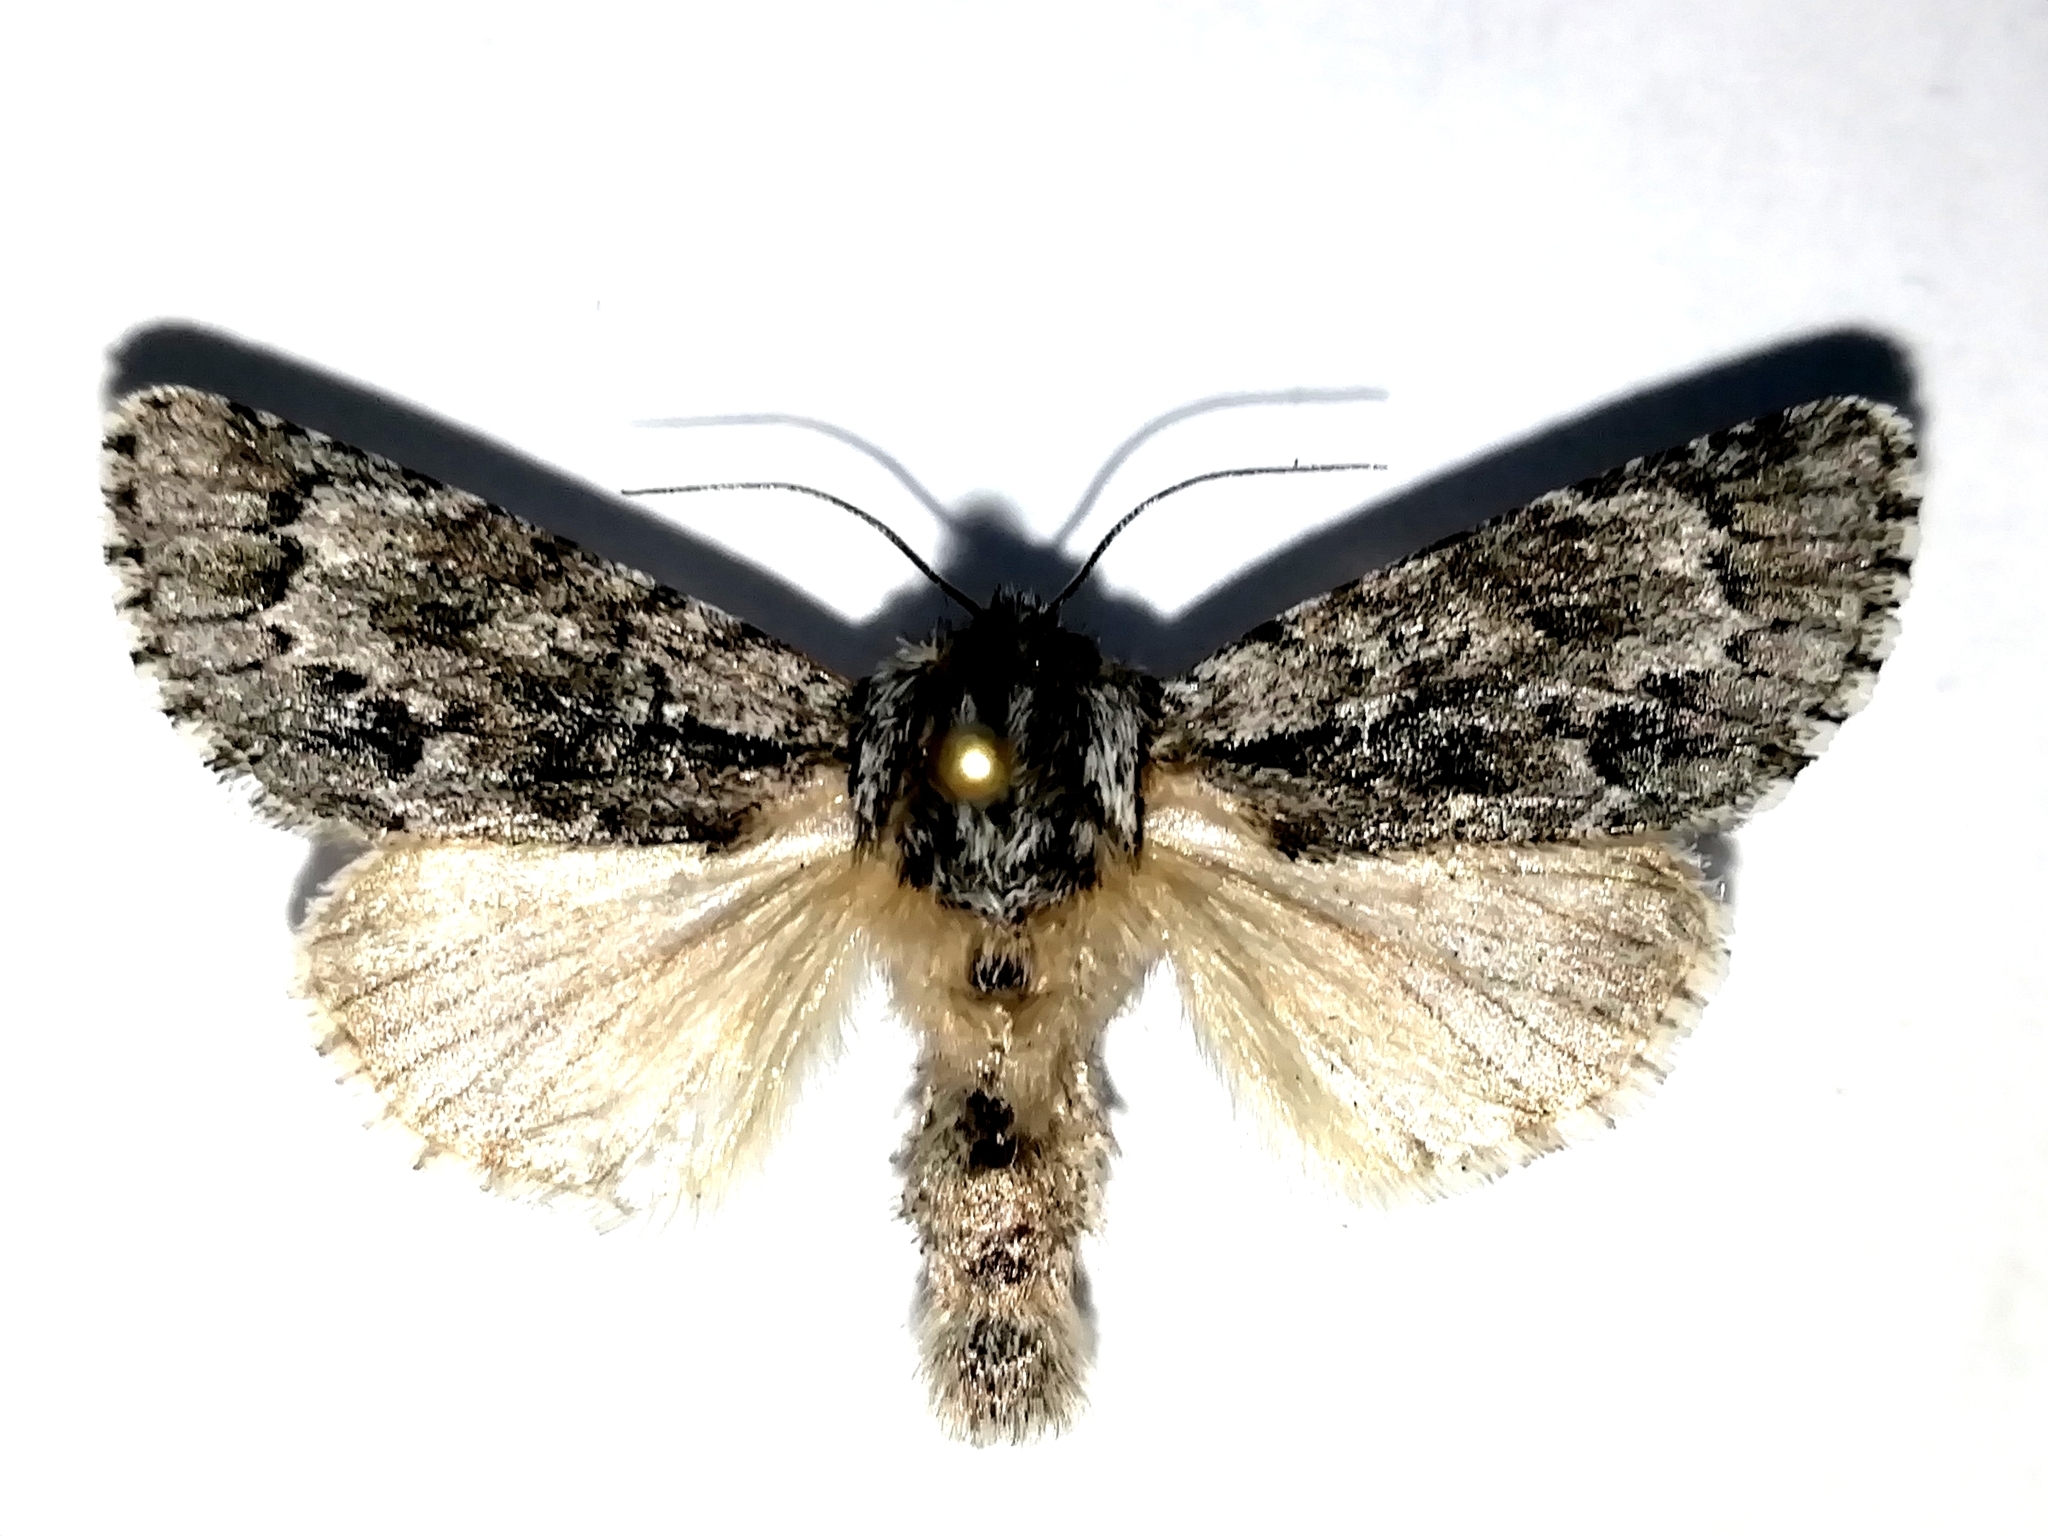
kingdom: Animalia
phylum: Arthropoda
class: Insecta
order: Lepidoptera
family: Noctuidae
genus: Acronicta
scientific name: Acronicta auricoma
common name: Scarce dagger
